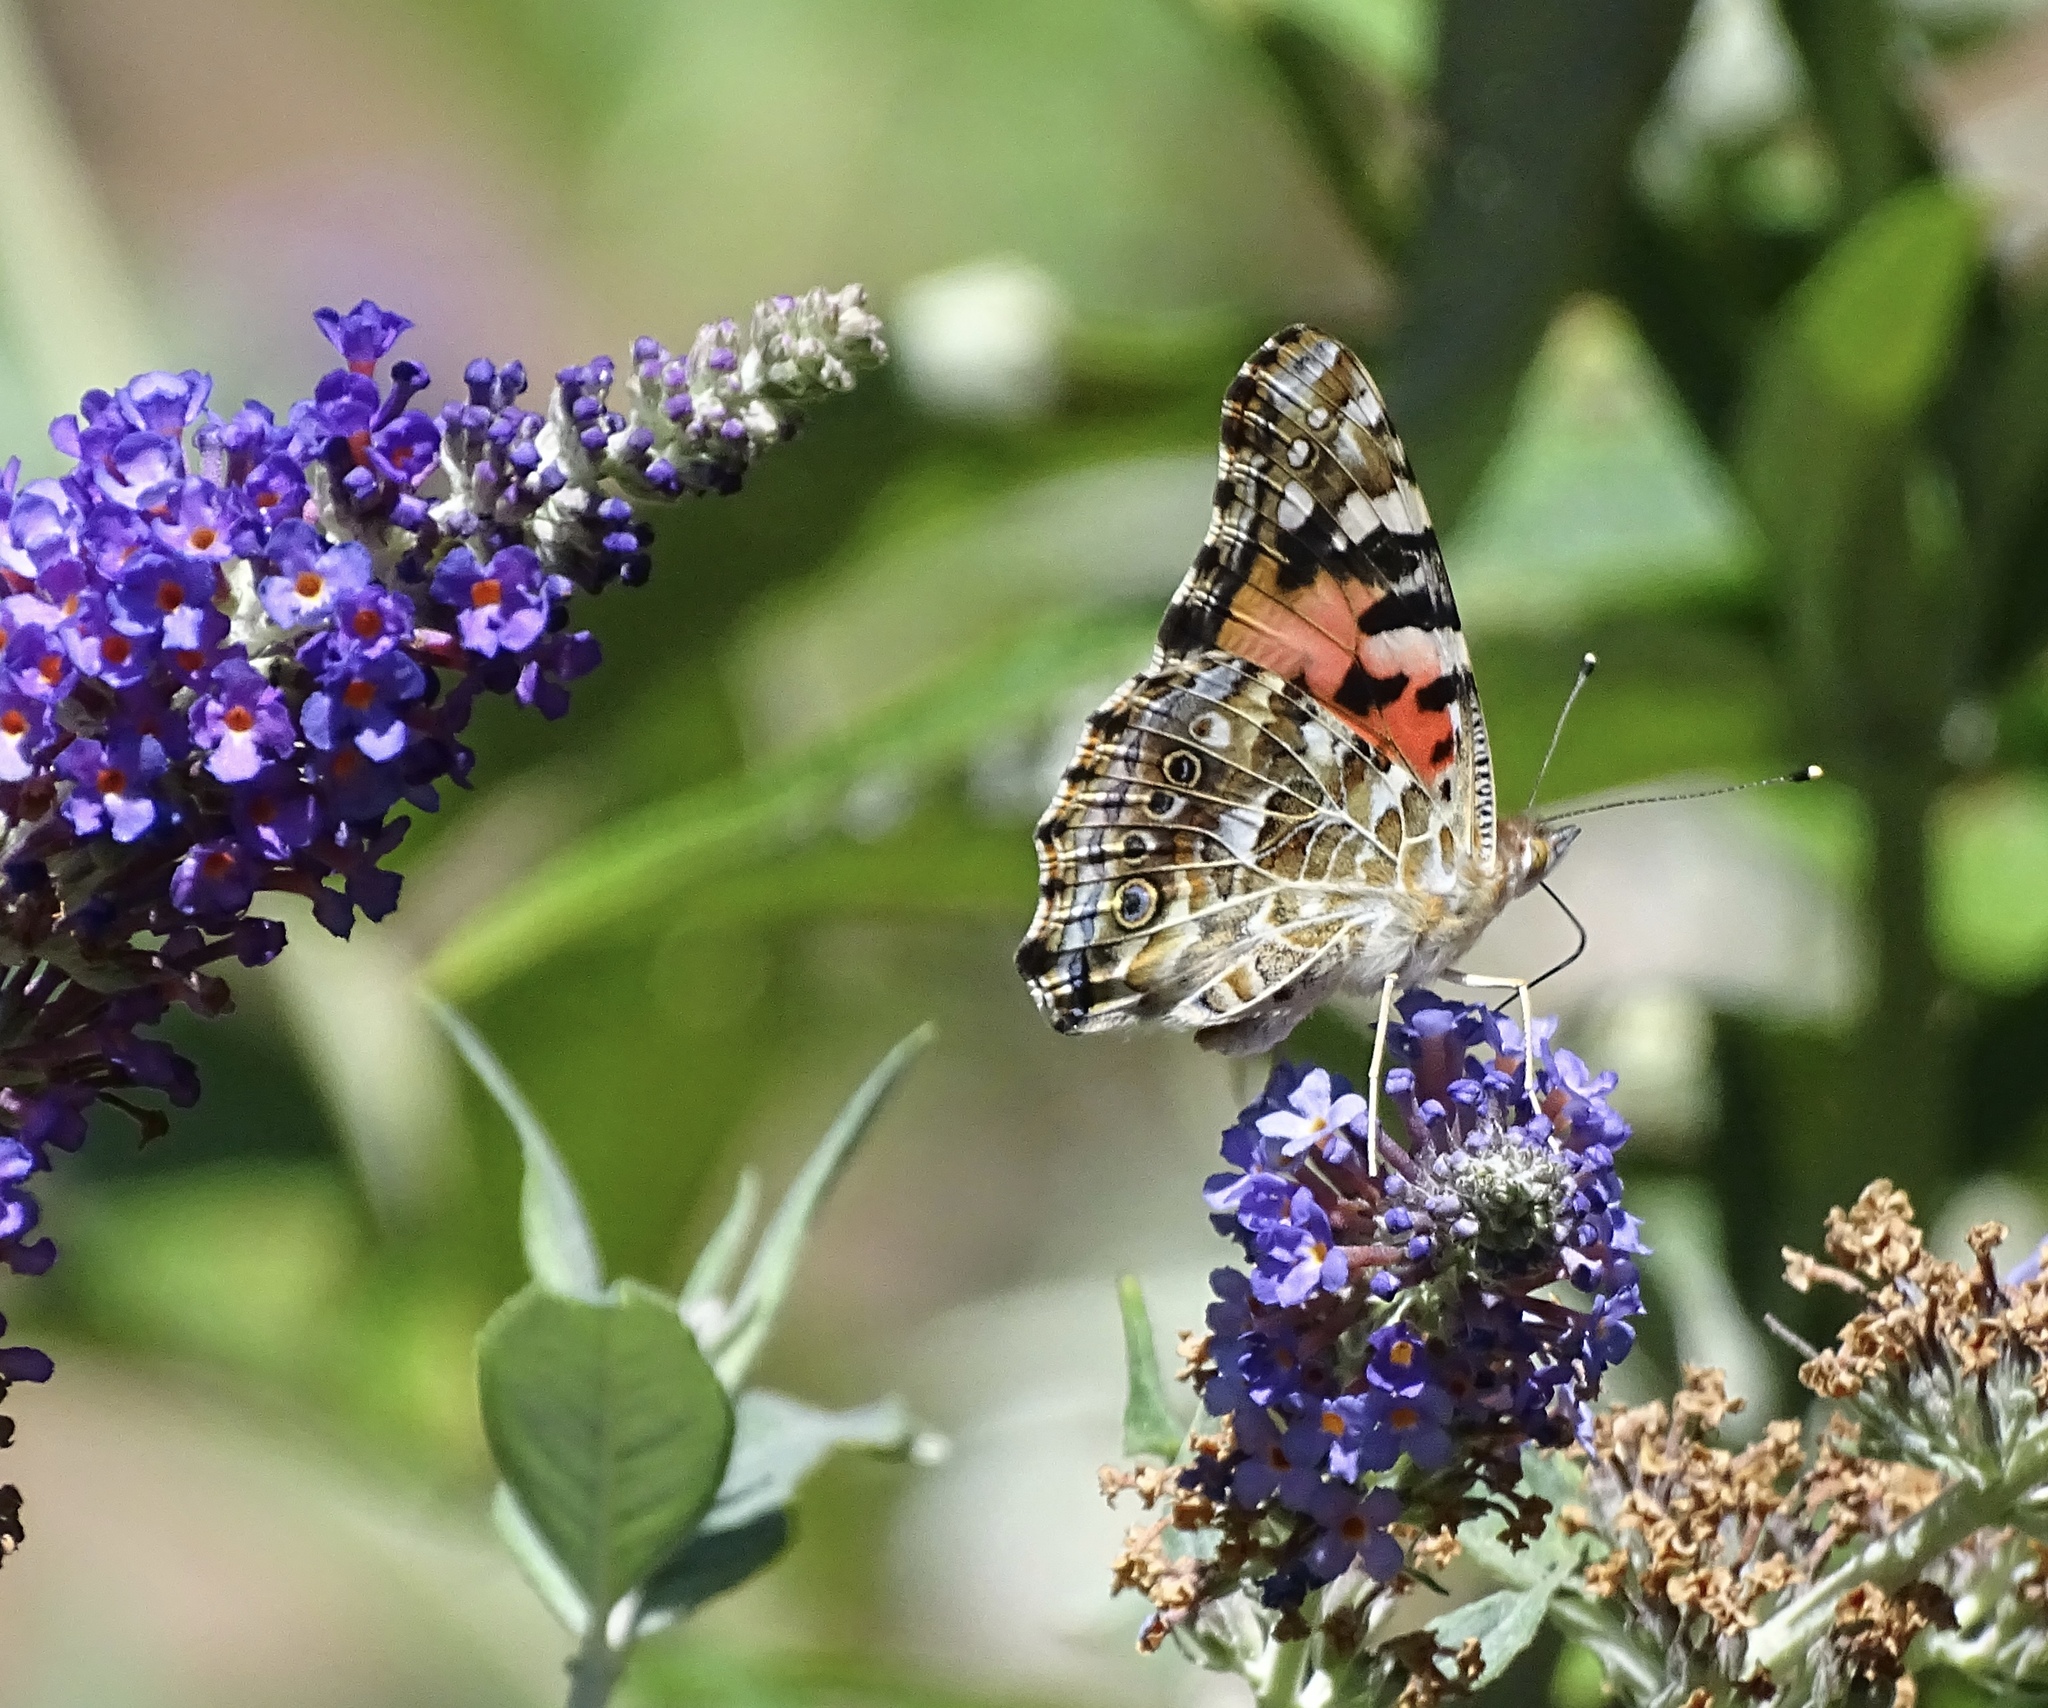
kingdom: Animalia
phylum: Arthropoda
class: Insecta
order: Lepidoptera
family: Nymphalidae
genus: Vanessa
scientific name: Vanessa cardui
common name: Painted lady
